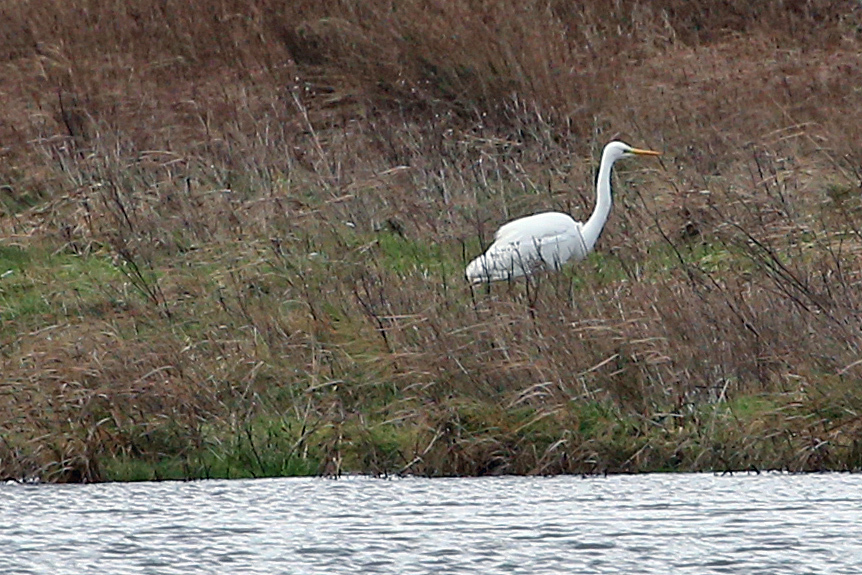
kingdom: Animalia
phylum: Chordata
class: Aves
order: Pelecaniformes
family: Ardeidae
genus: Ardea
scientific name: Ardea alba
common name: Great egret
